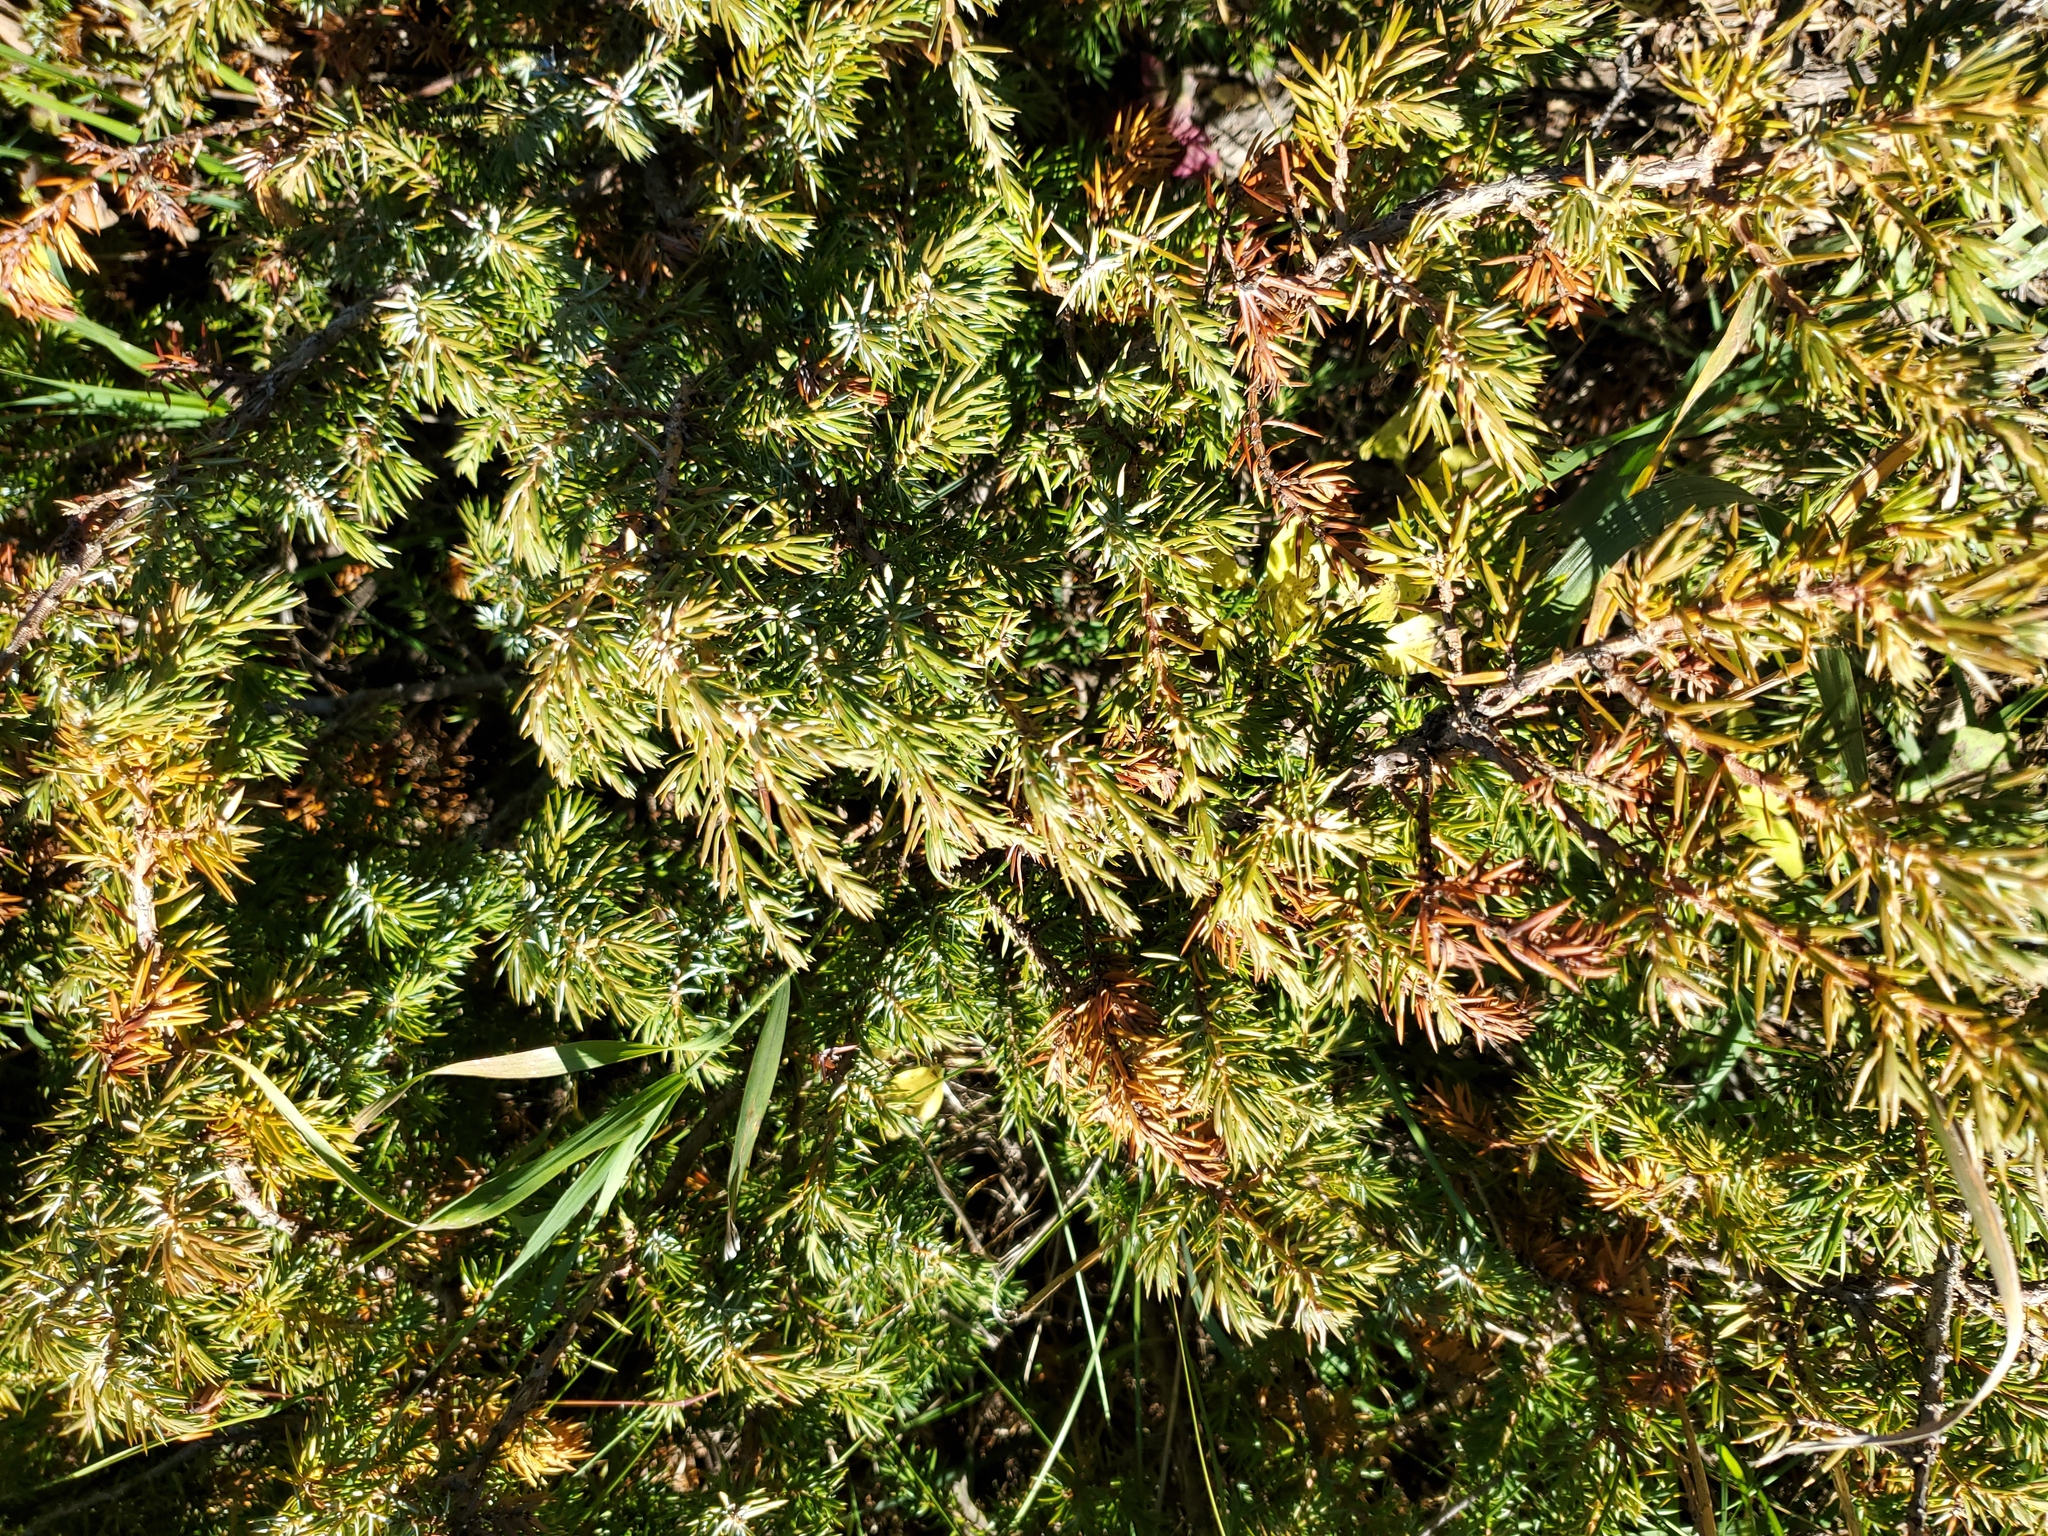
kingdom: Plantae
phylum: Tracheophyta
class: Pinopsida
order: Pinales
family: Cupressaceae
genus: Juniperus
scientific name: Juniperus communis
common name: Common juniper
